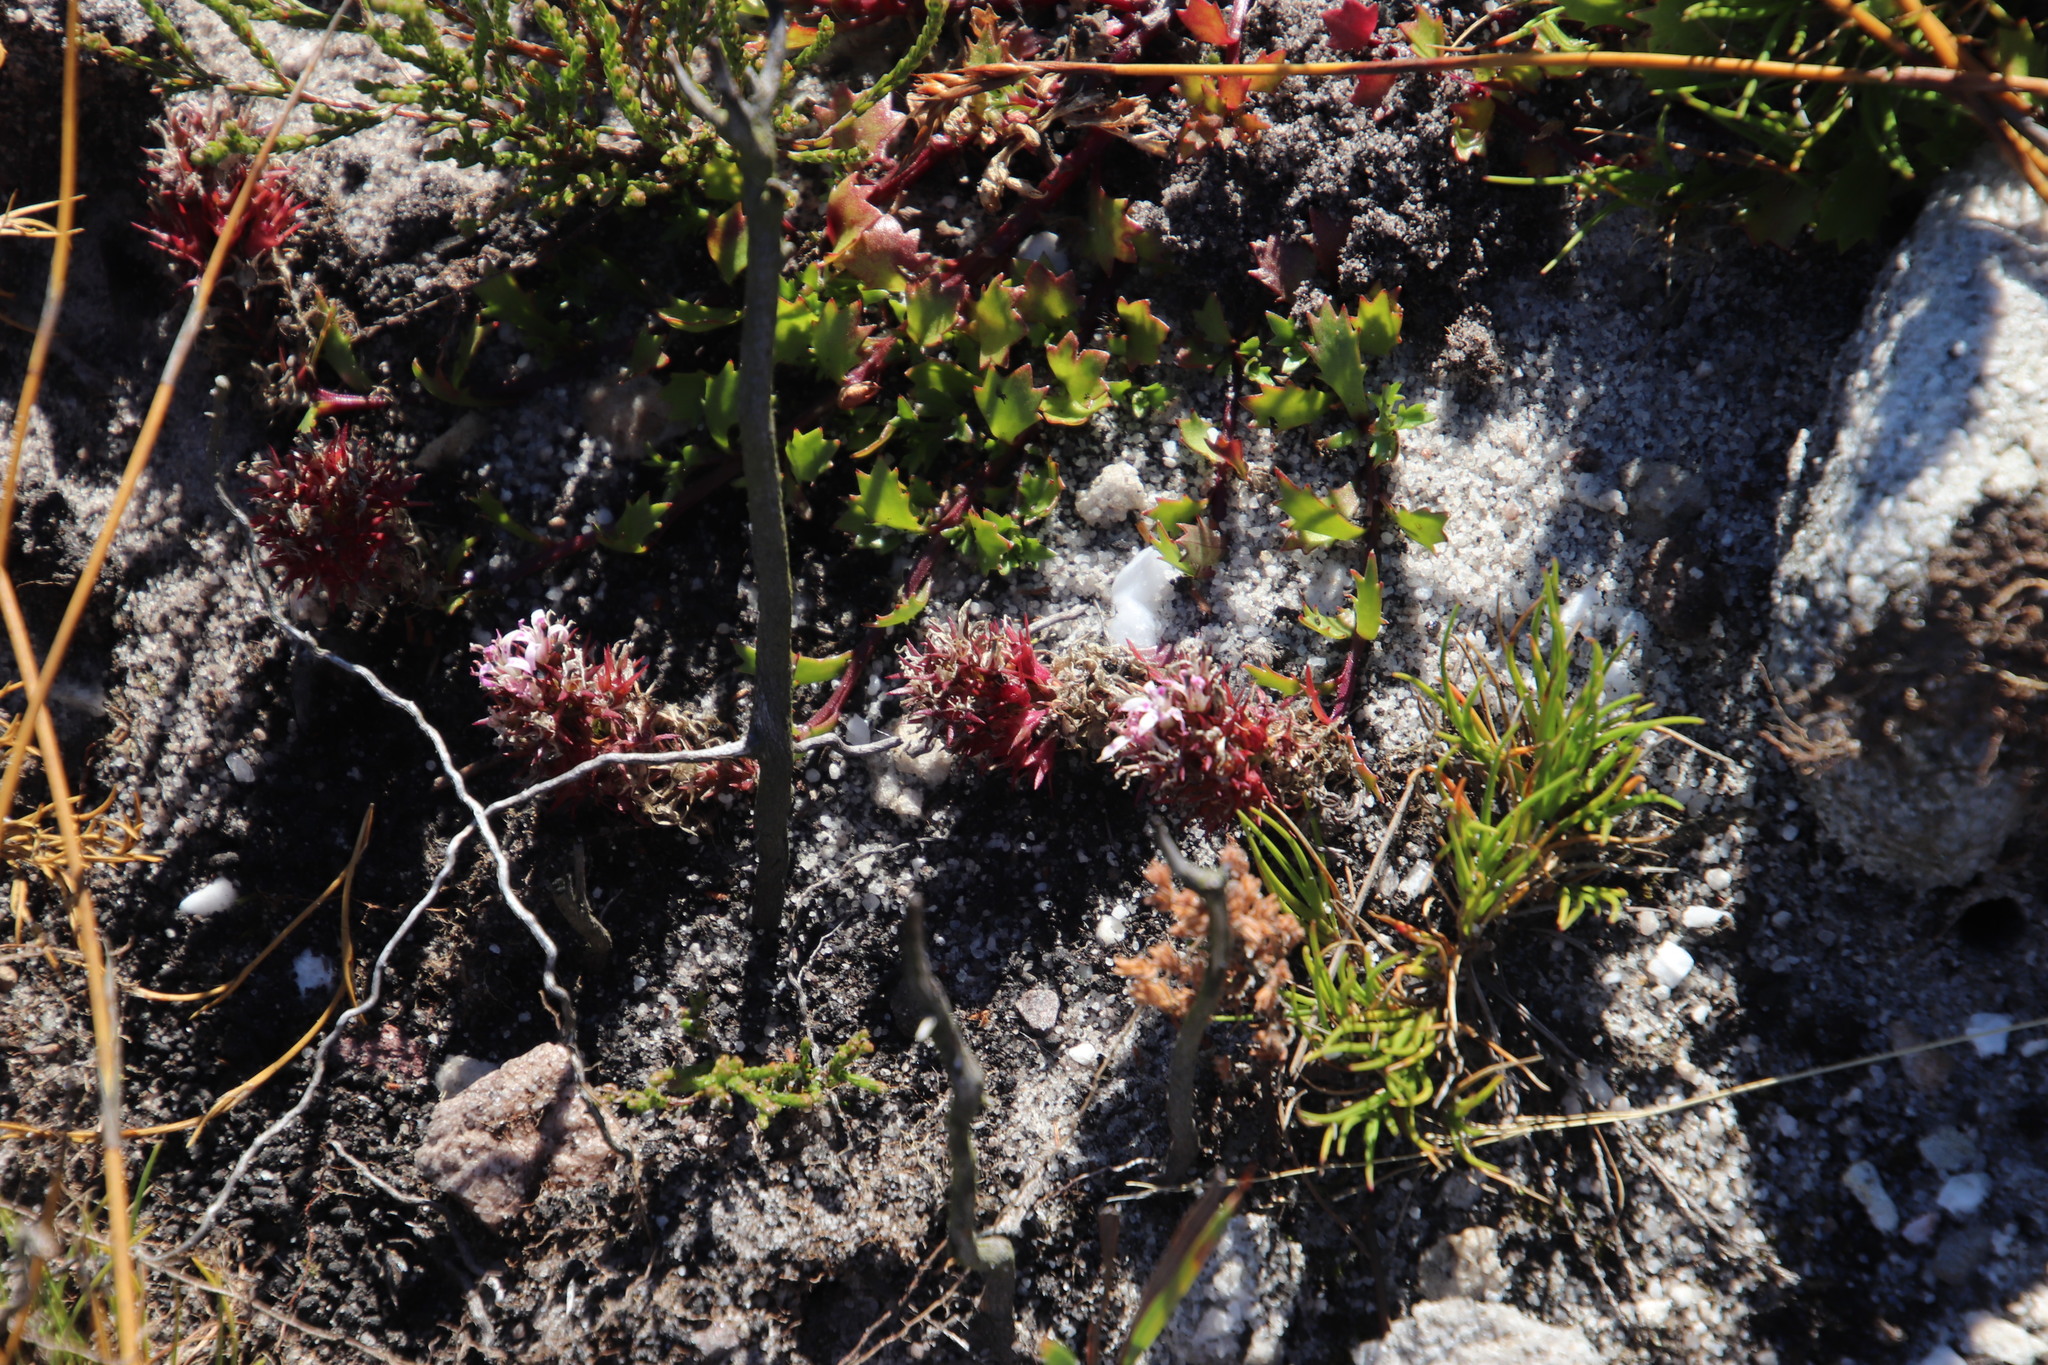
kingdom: Plantae
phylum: Tracheophyta
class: Magnoliopsida
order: Asterales
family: Campanulaceae
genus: Lobelia
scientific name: Lobelia jasionoides
